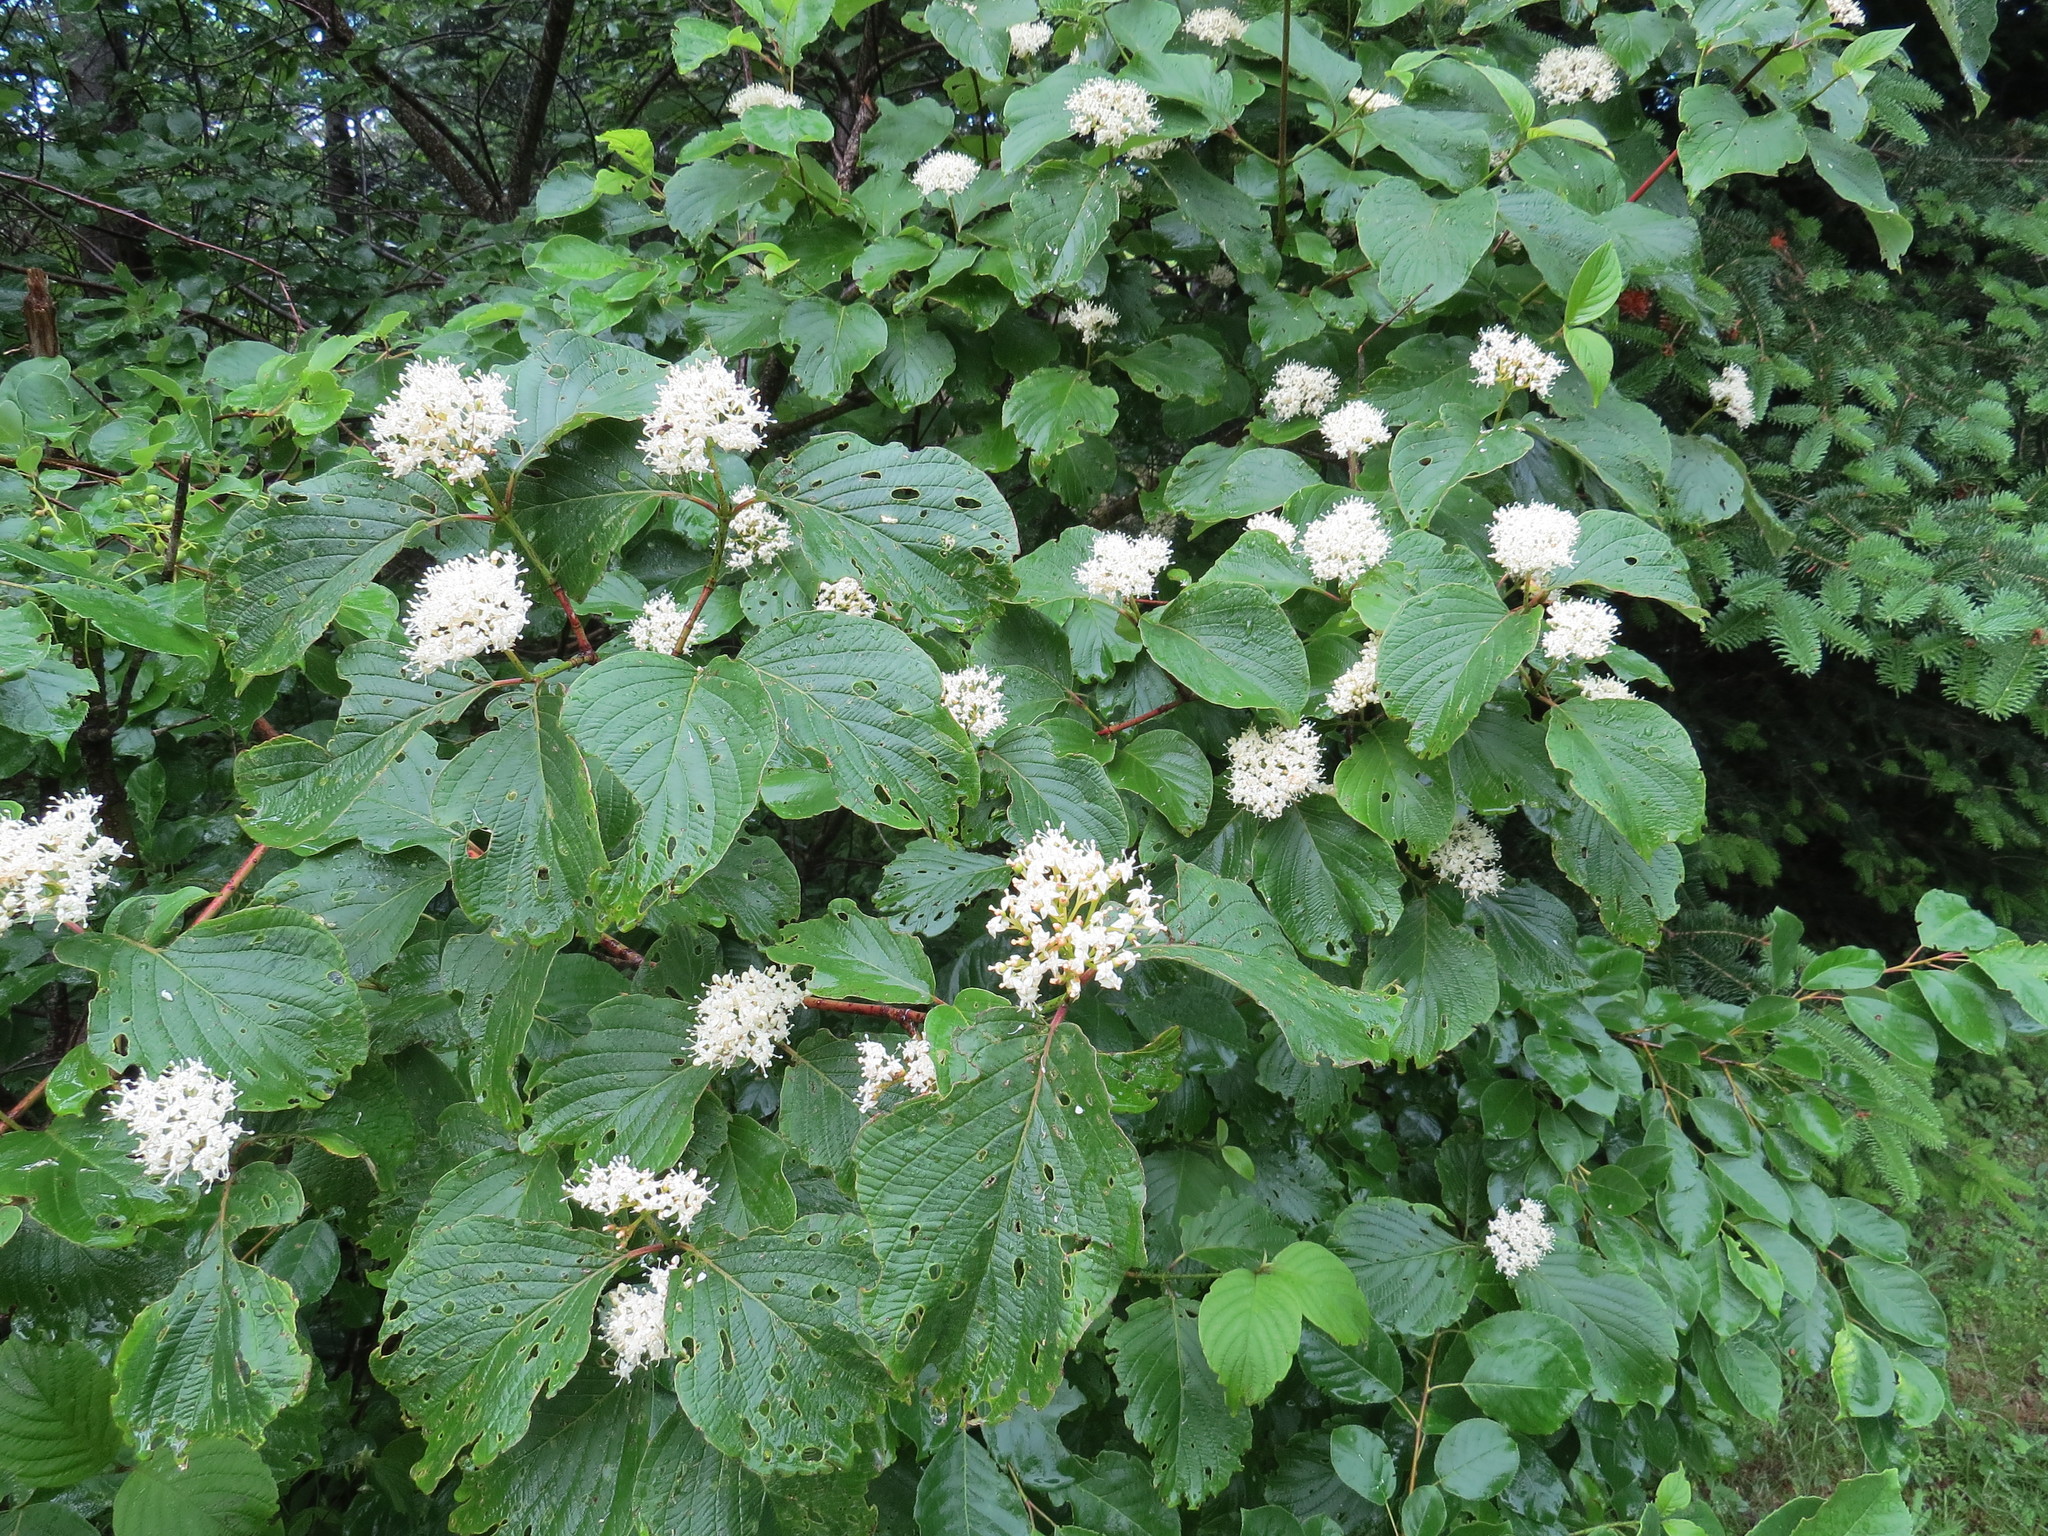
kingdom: Plantae
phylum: Tracheophyta
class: Magnoliopsida
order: Cornales
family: Cornaceae
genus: Cornus
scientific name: Cornus rugosa
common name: Round-leaf dogwood
